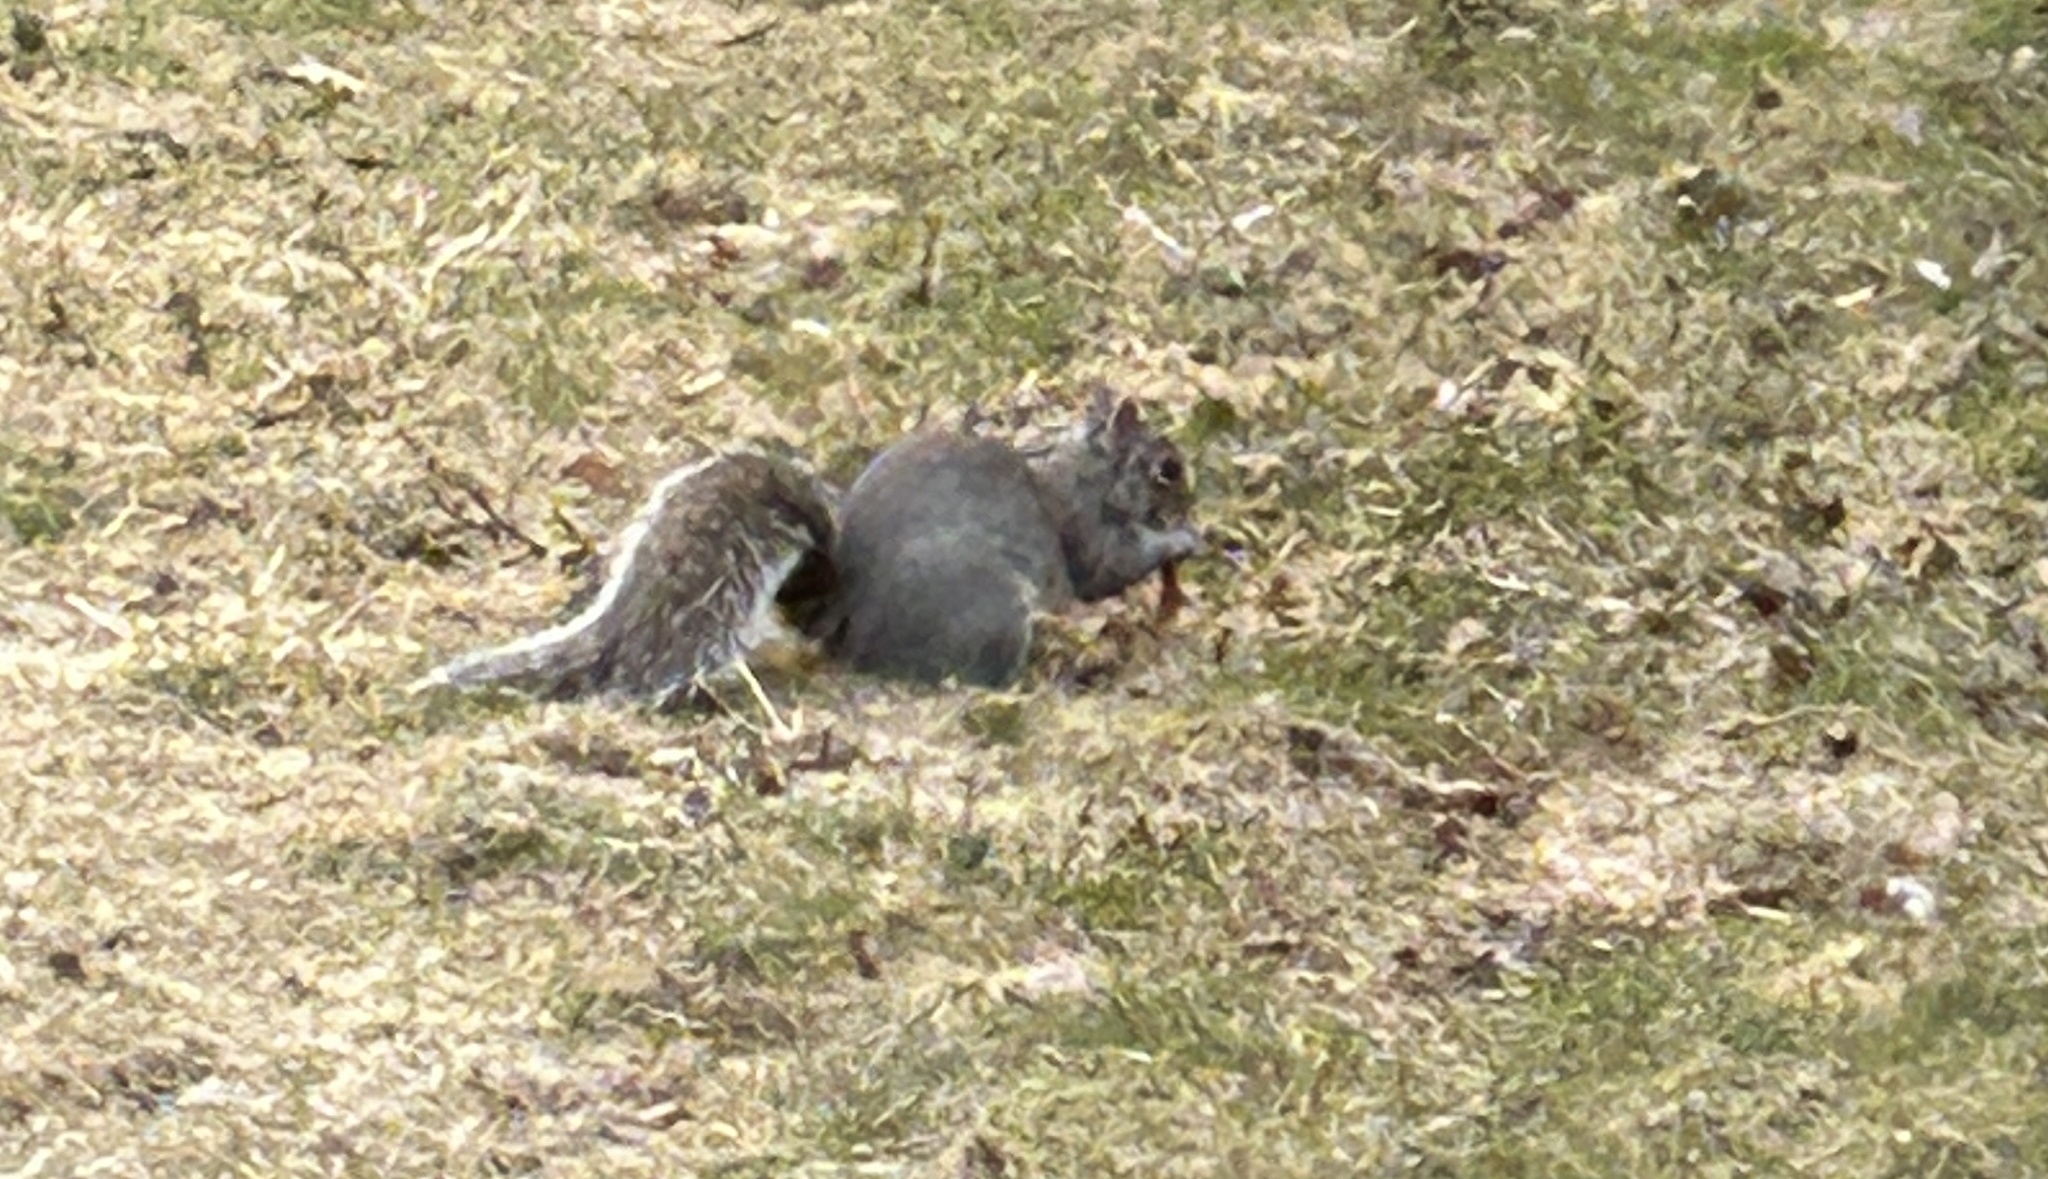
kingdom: Animalia
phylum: Chordata
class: Mammalia
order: Rodentia
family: Sciuridae
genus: Sciurus
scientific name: Sciurus carolinensis
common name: Eastern gray squirrel
